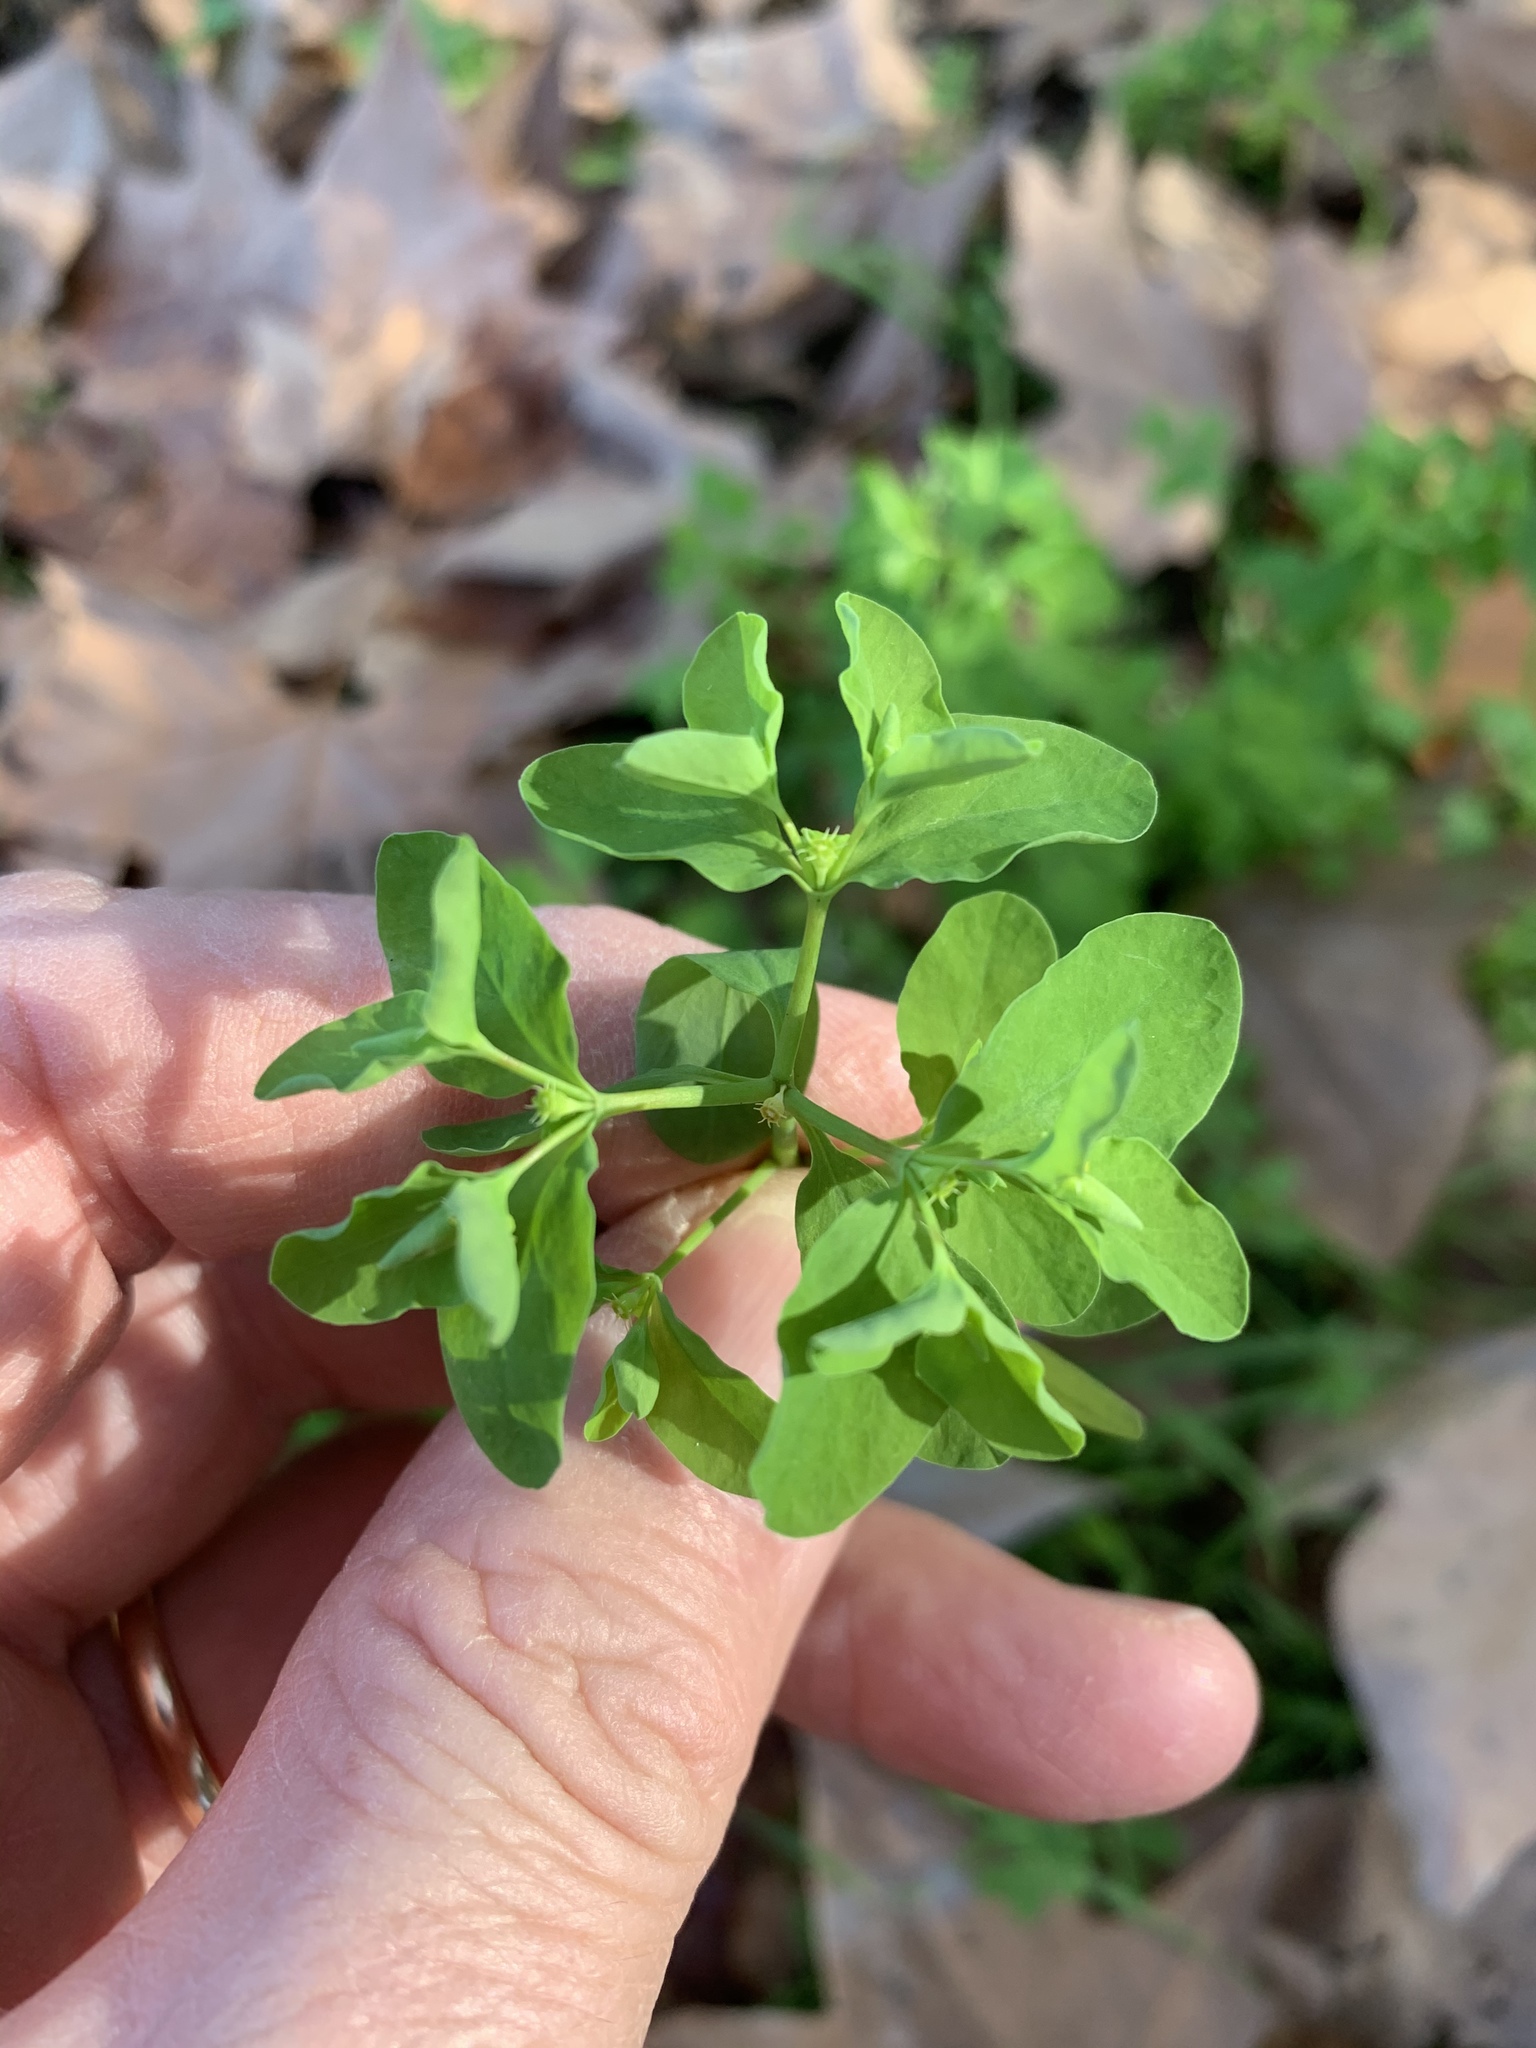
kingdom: Plantae
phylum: Tracheophyta
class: Magnoliopsida
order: Malpighiales
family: Euphorbiaceae
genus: Euphorbia
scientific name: Euphorbia peplus
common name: Petty spurge
